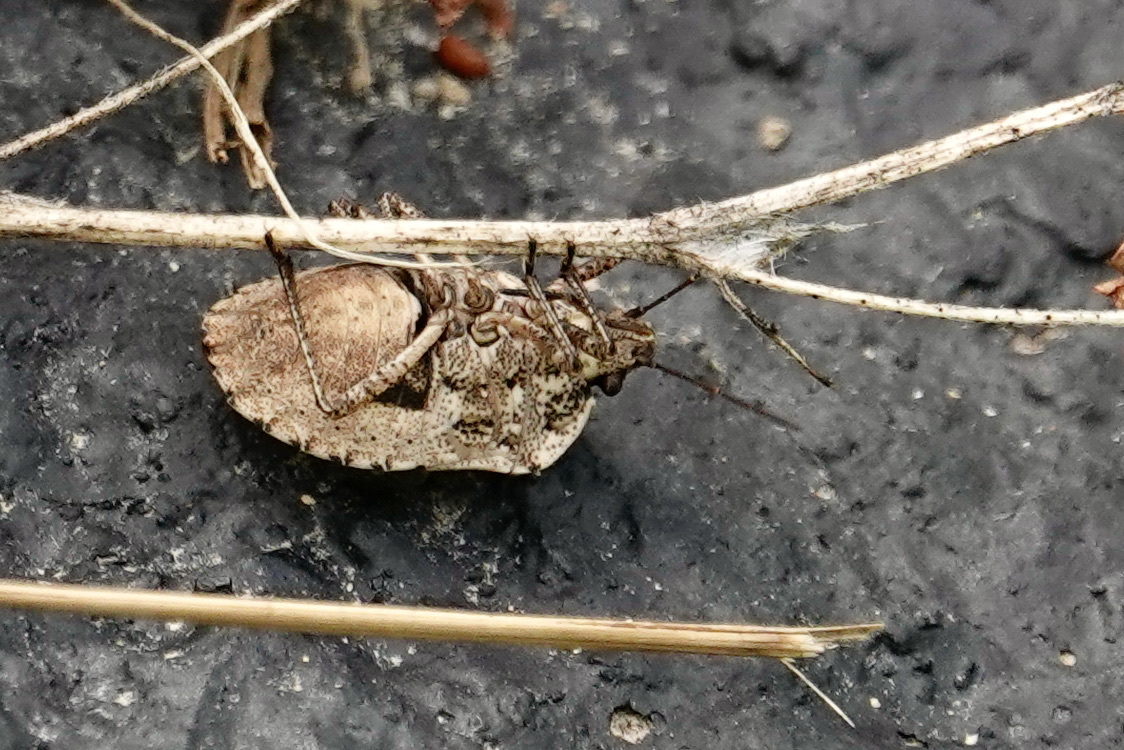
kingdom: Animalia
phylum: Arthropoda
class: Insecta
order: Hemiptera
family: Pentatomidae
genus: Hymenarcys
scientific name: Hymenarcys nervosa
